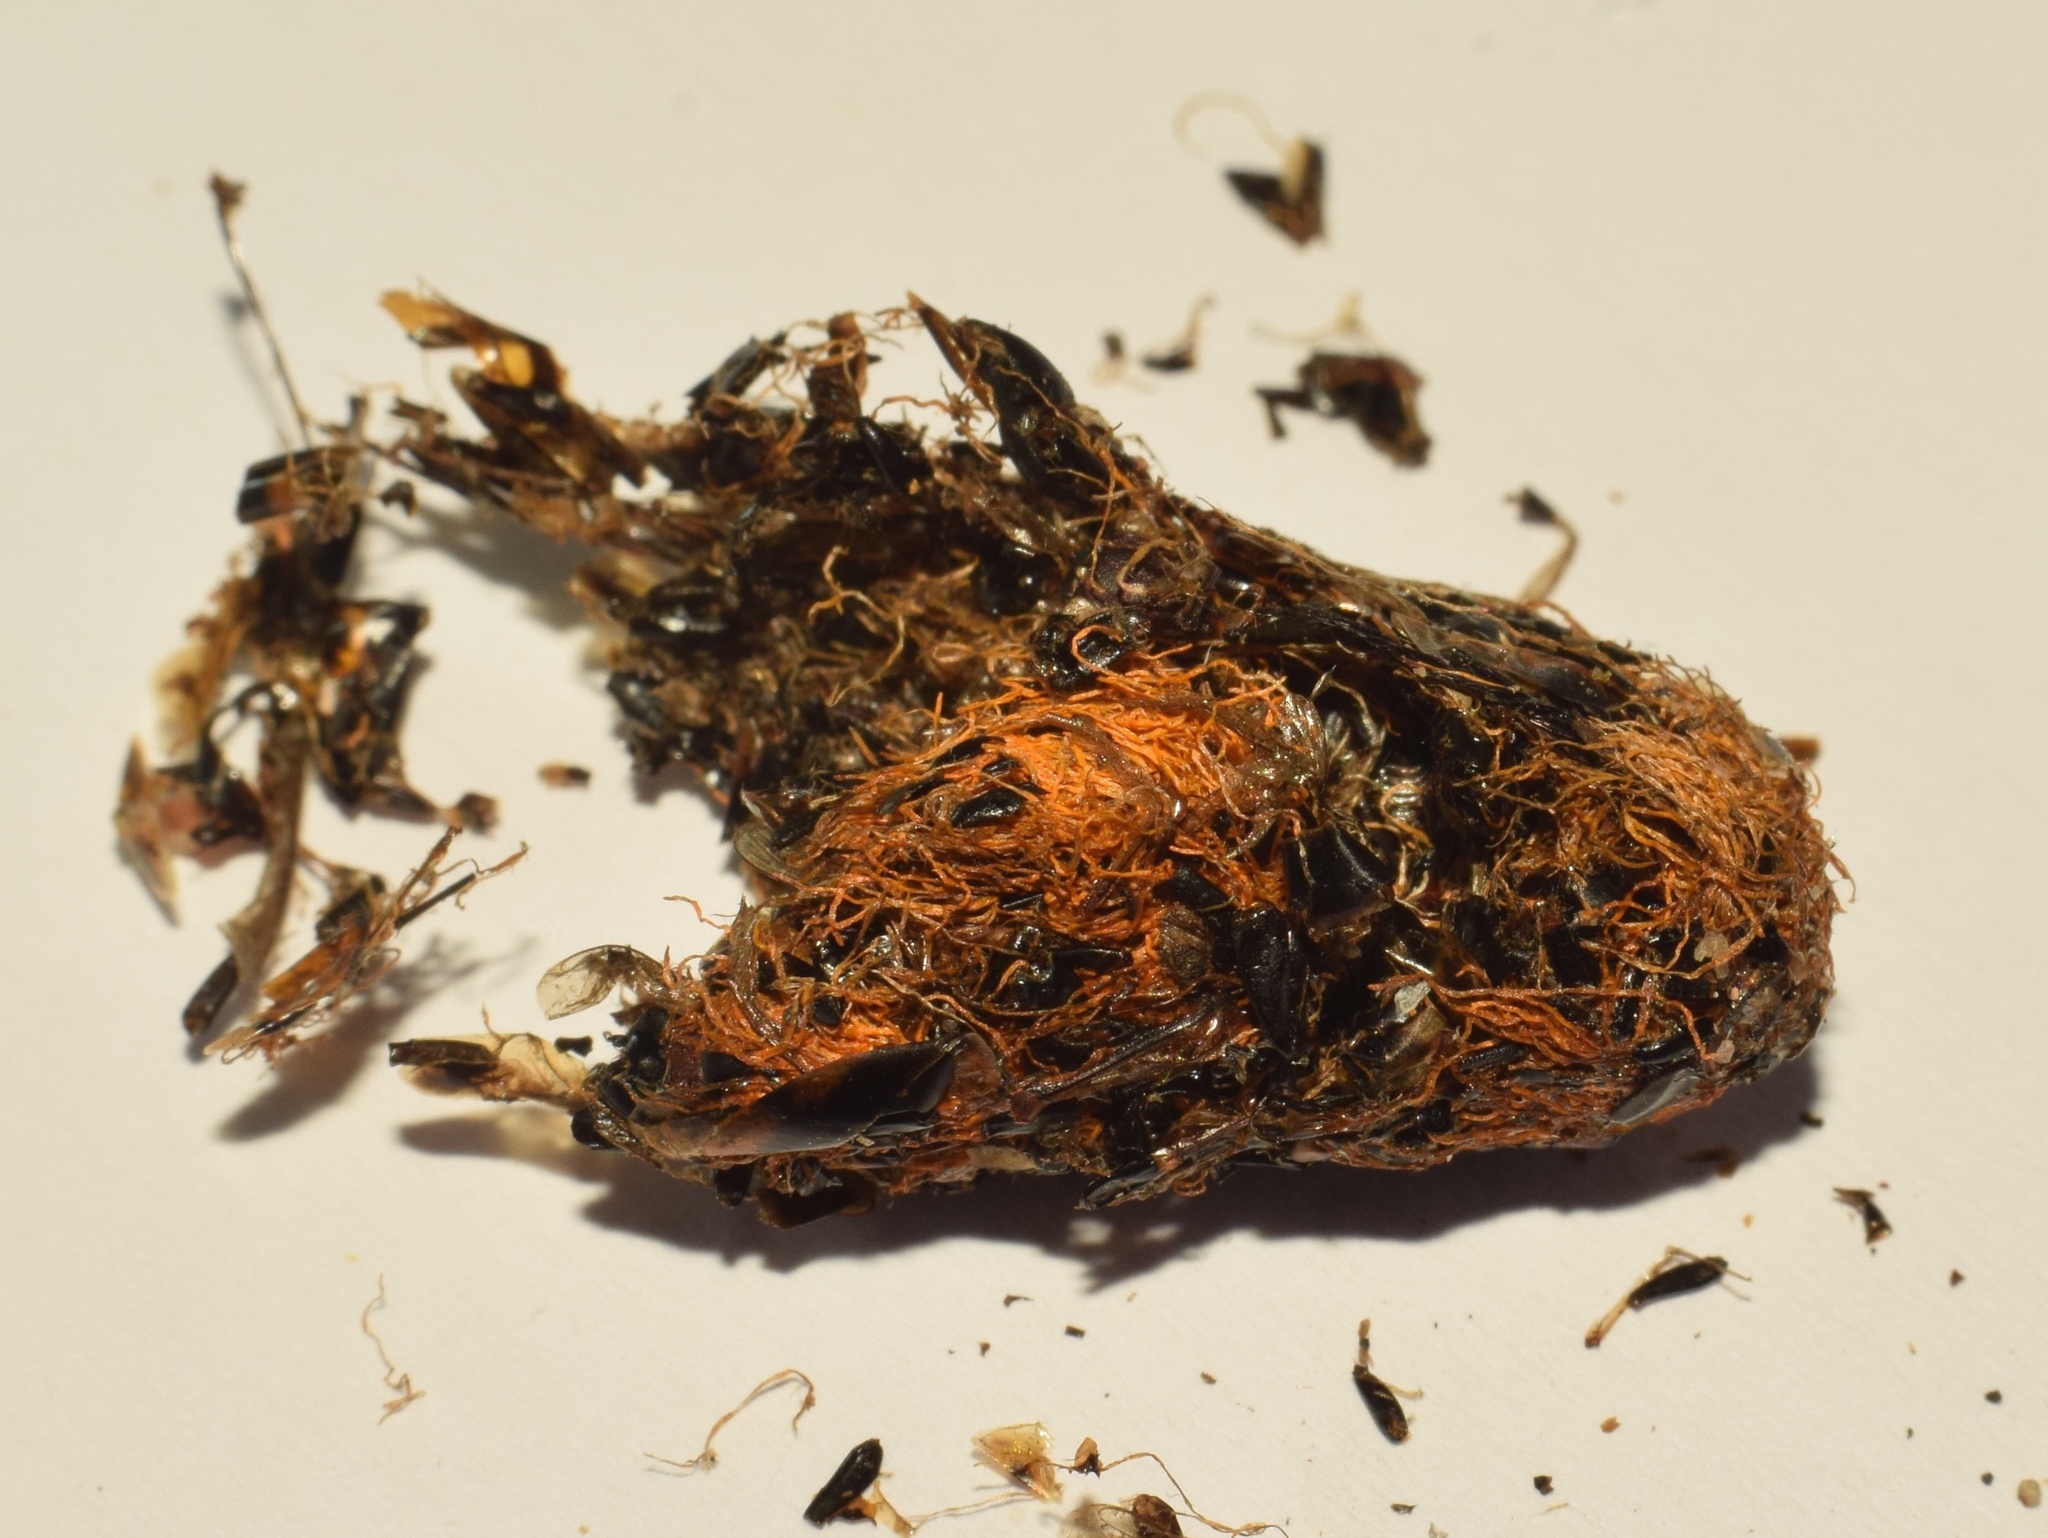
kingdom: Animalia
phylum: Chordata
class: Mammalia
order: Primates
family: Galagidae
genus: Otolemur
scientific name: Otolemur crassicaudatus
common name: Brown greater galago
